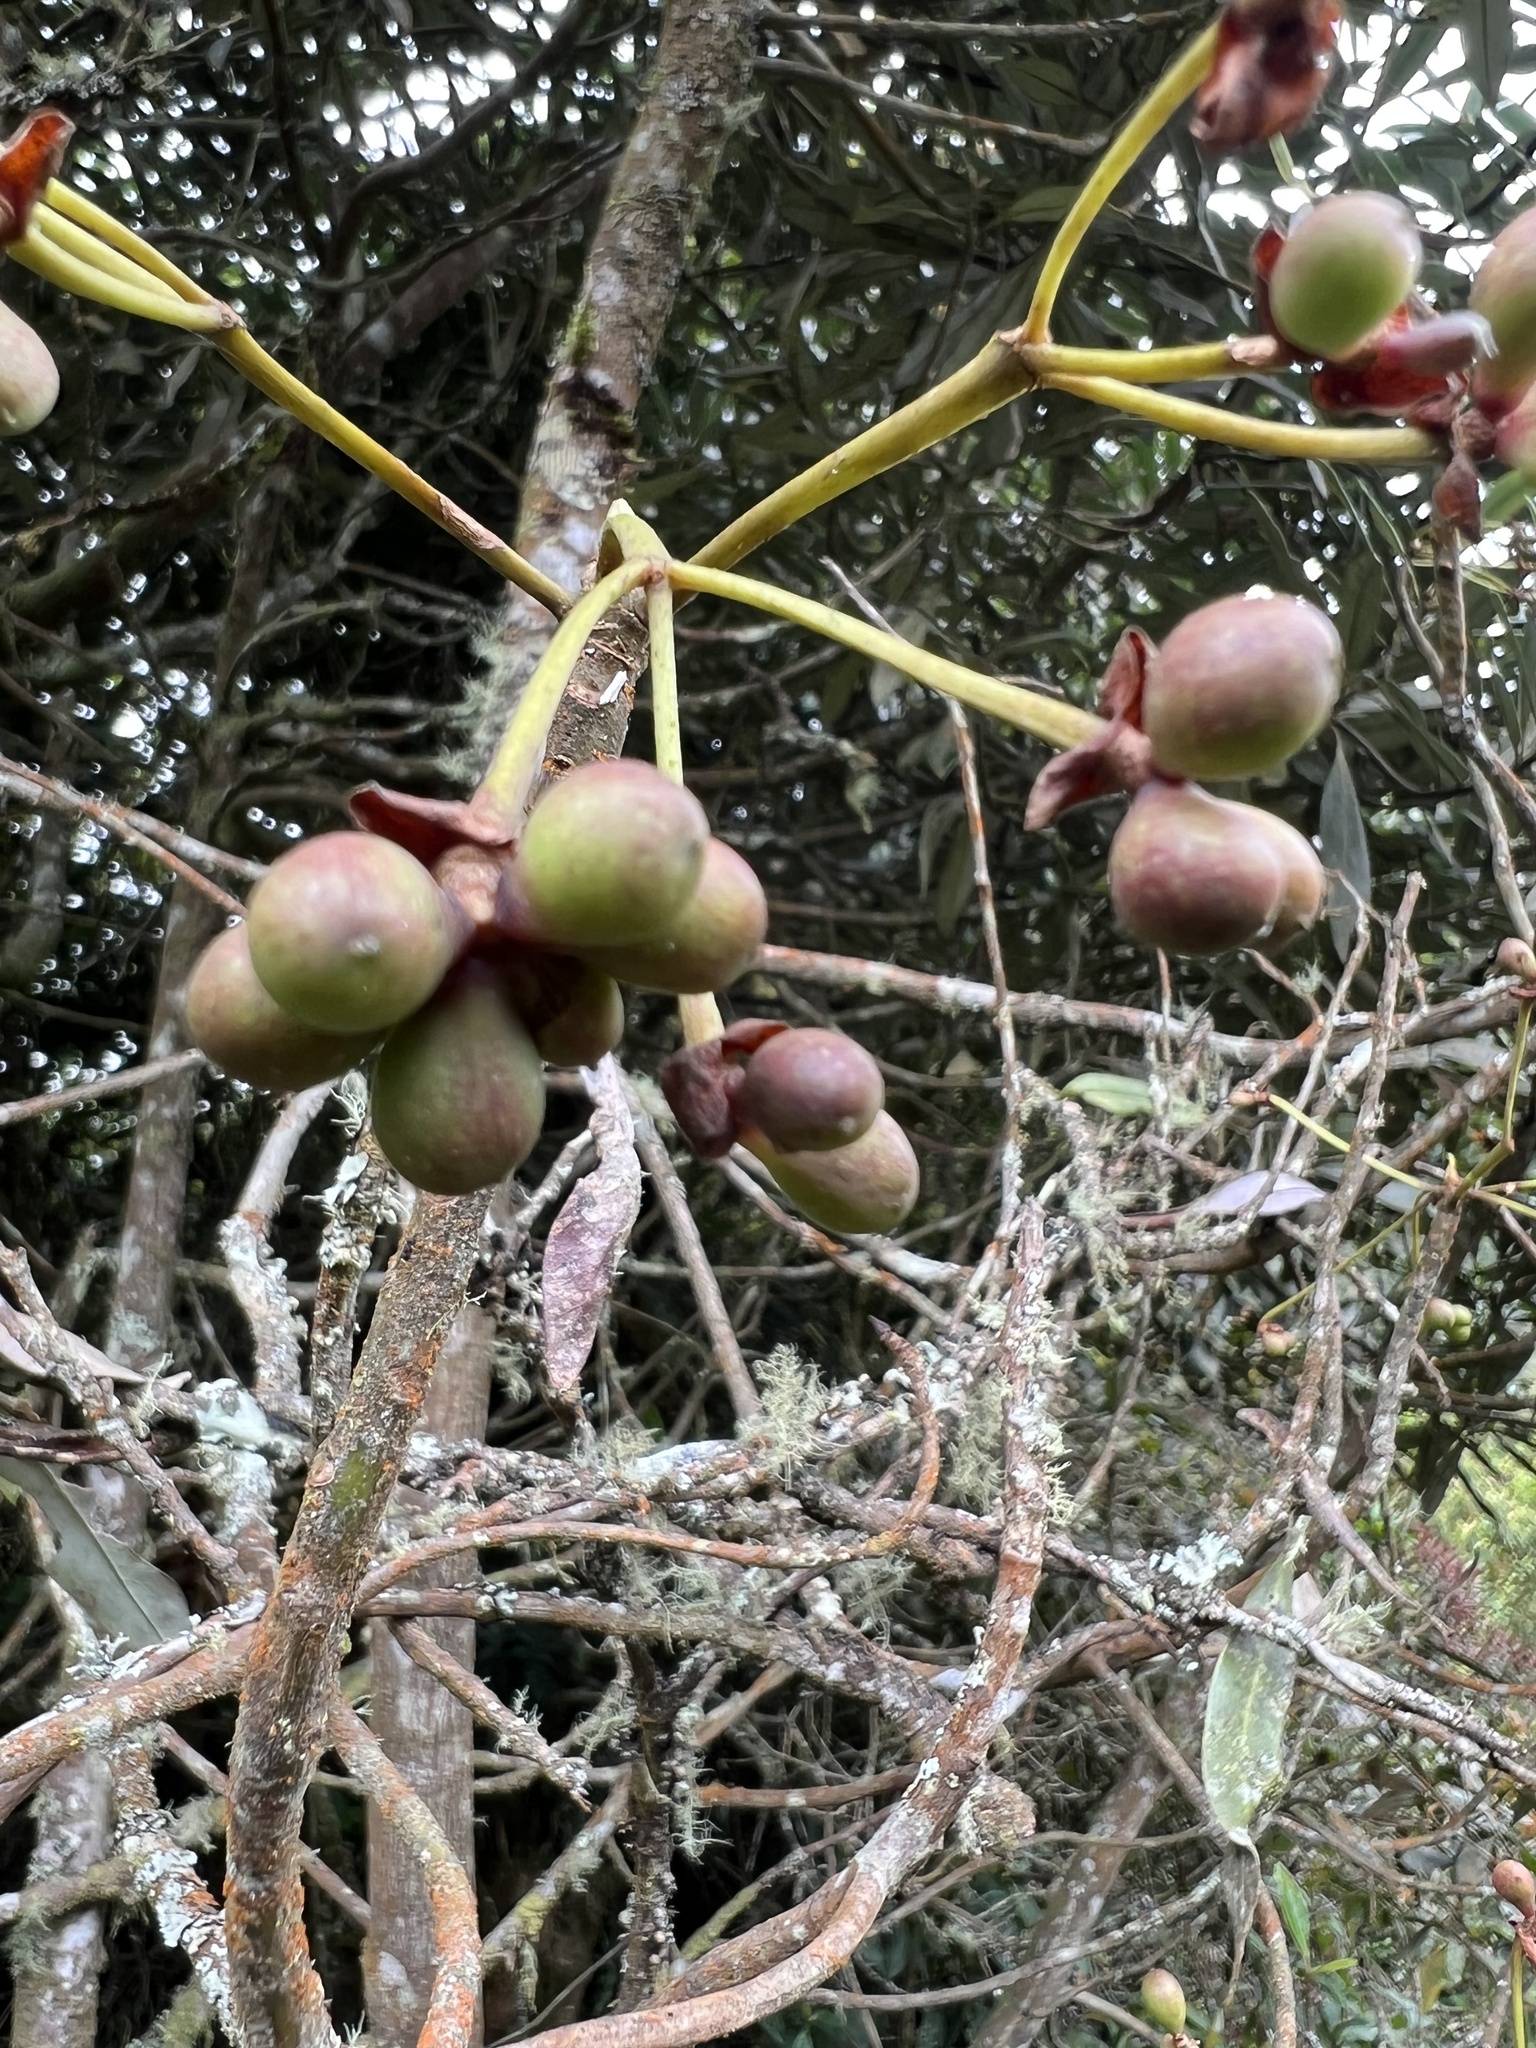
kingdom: Plantae
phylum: Tracheophyta
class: Magnoliopsida
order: Canellales
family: Winteraceae
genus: Drimys
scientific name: Drimys granadensis
